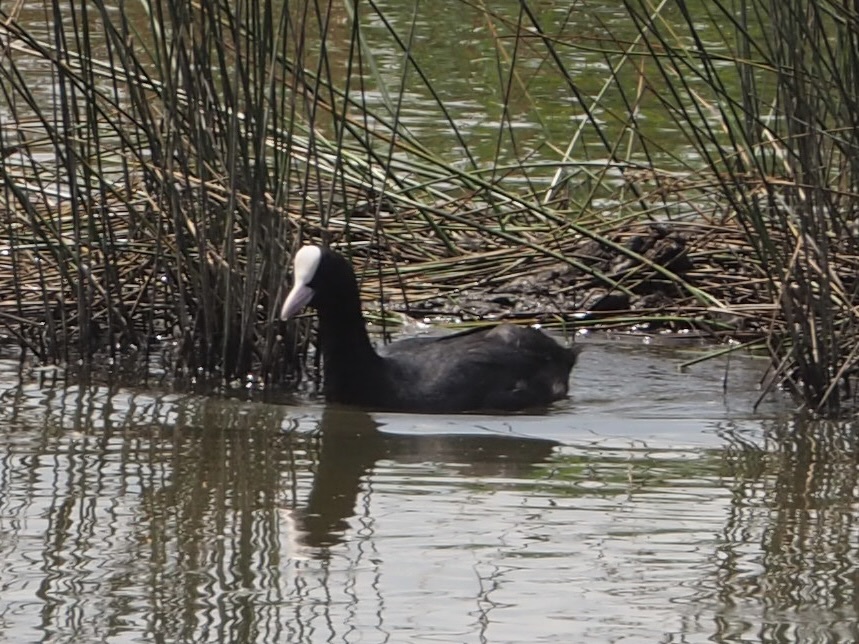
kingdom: Animalia
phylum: Chordata
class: Aves
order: Gruiformes
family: Rallidae
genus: Fulica
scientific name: Fulica atra
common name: Eurasian coot
